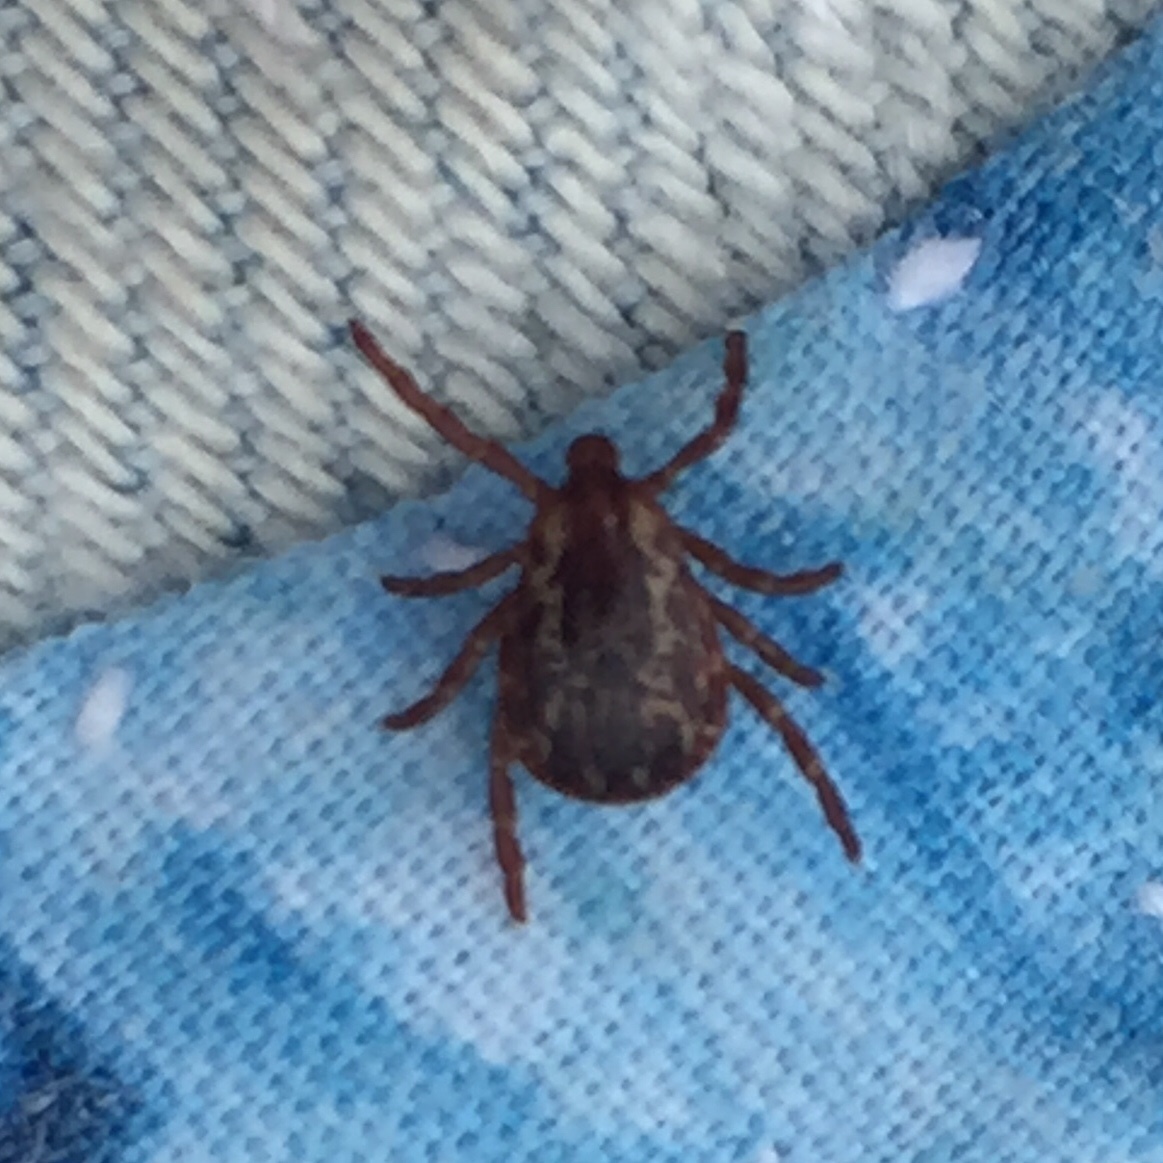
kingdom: Animalia
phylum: Arthropoda
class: Arachnida
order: Ixodida
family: Ixodidae
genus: Dermacentor
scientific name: Dermacentor variabilis
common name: American dog tick
